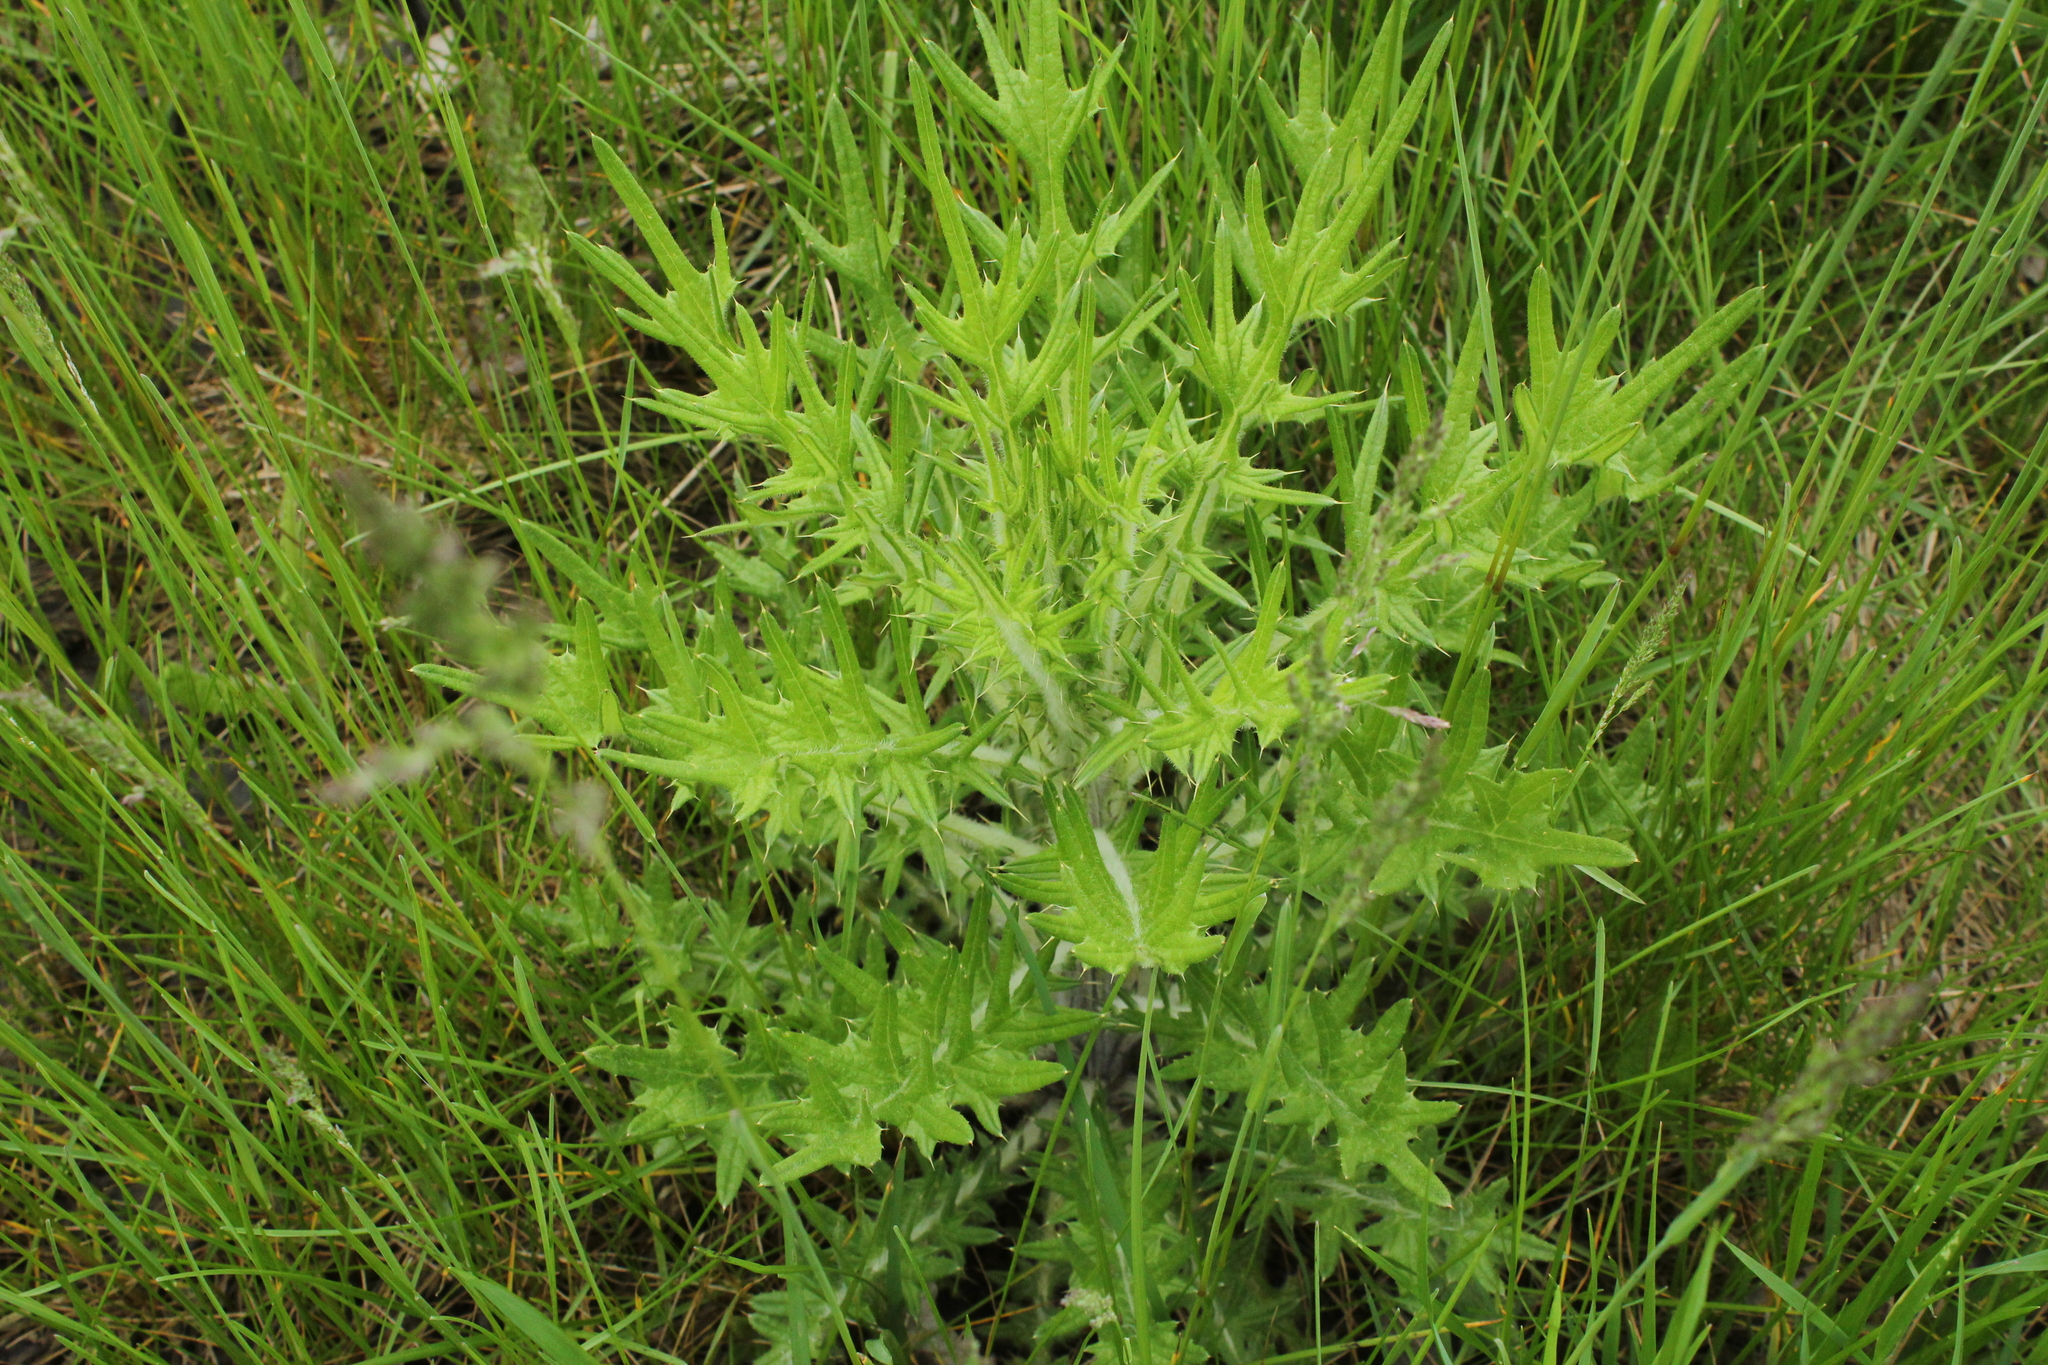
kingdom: Plantae
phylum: Tracheophyta
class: Magnoliopsida
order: Asterales
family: Asteraceae
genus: Cirsium
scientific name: Cirsium vulgare
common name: Bull thistle
